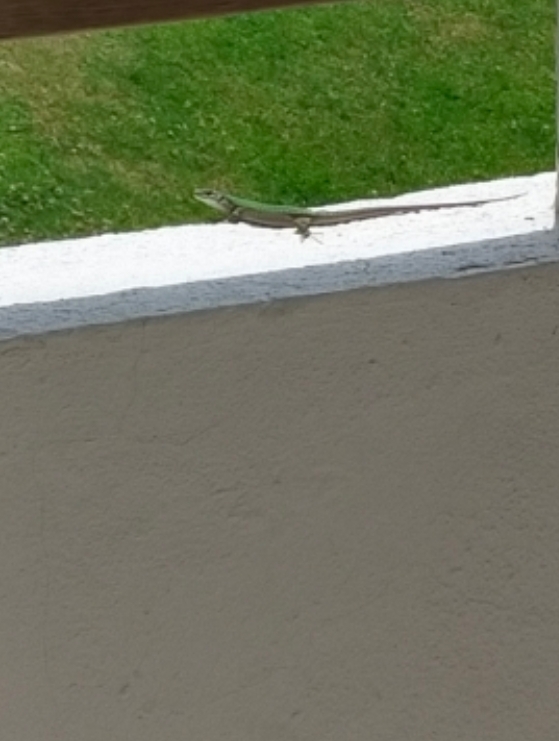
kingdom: Animalia
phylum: Chordata
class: Squamata
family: Lacertidae
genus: Podarcis
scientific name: Podarcis siculus
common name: Italian wall lizard
